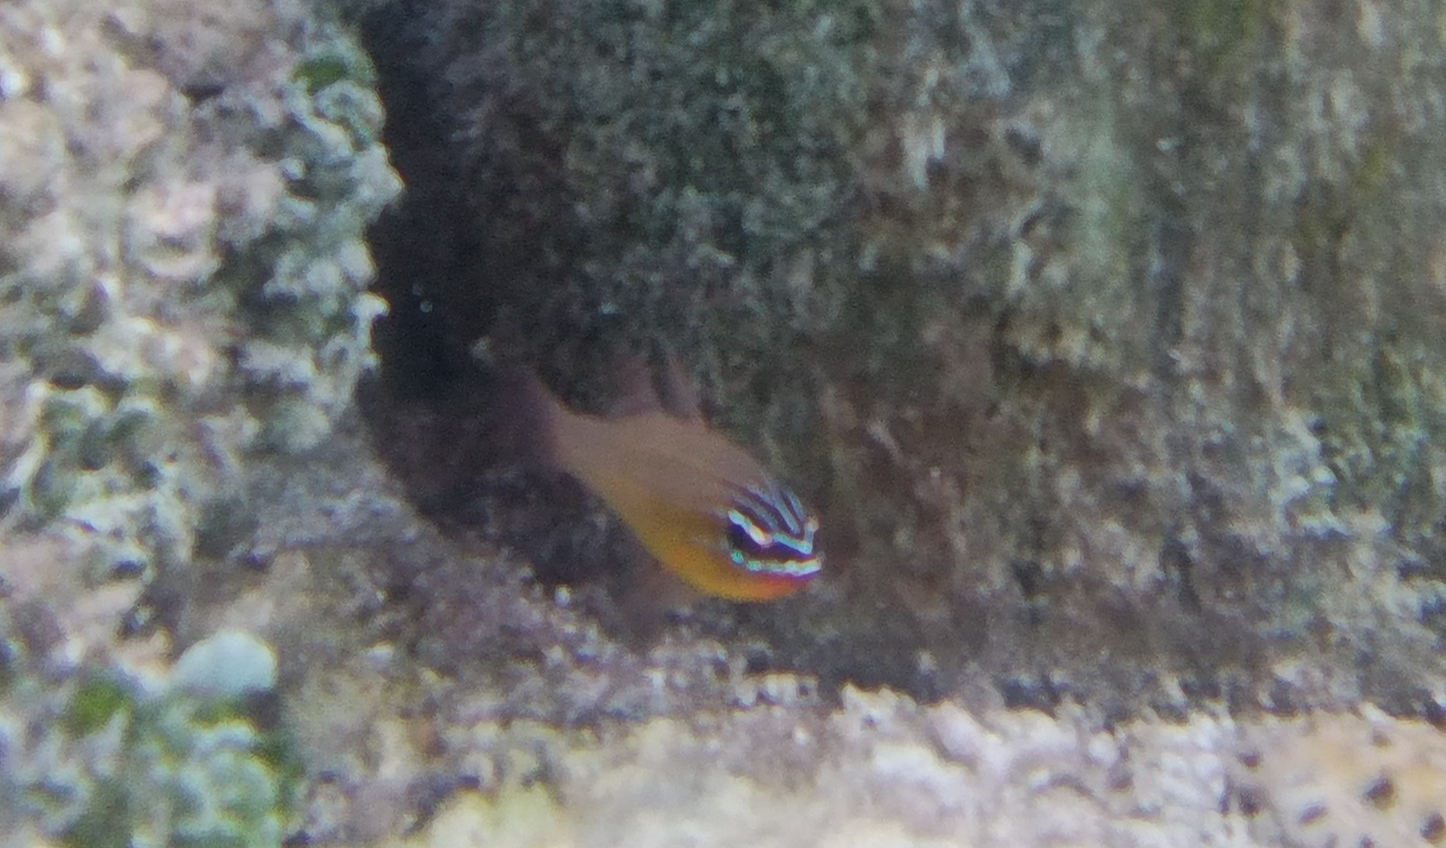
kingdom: Animalia
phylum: Chordata
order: Perciformes
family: Apogonidae
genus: Ostorhinchus
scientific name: Ostorhinchus properuptus
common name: Coral cardinalfish
